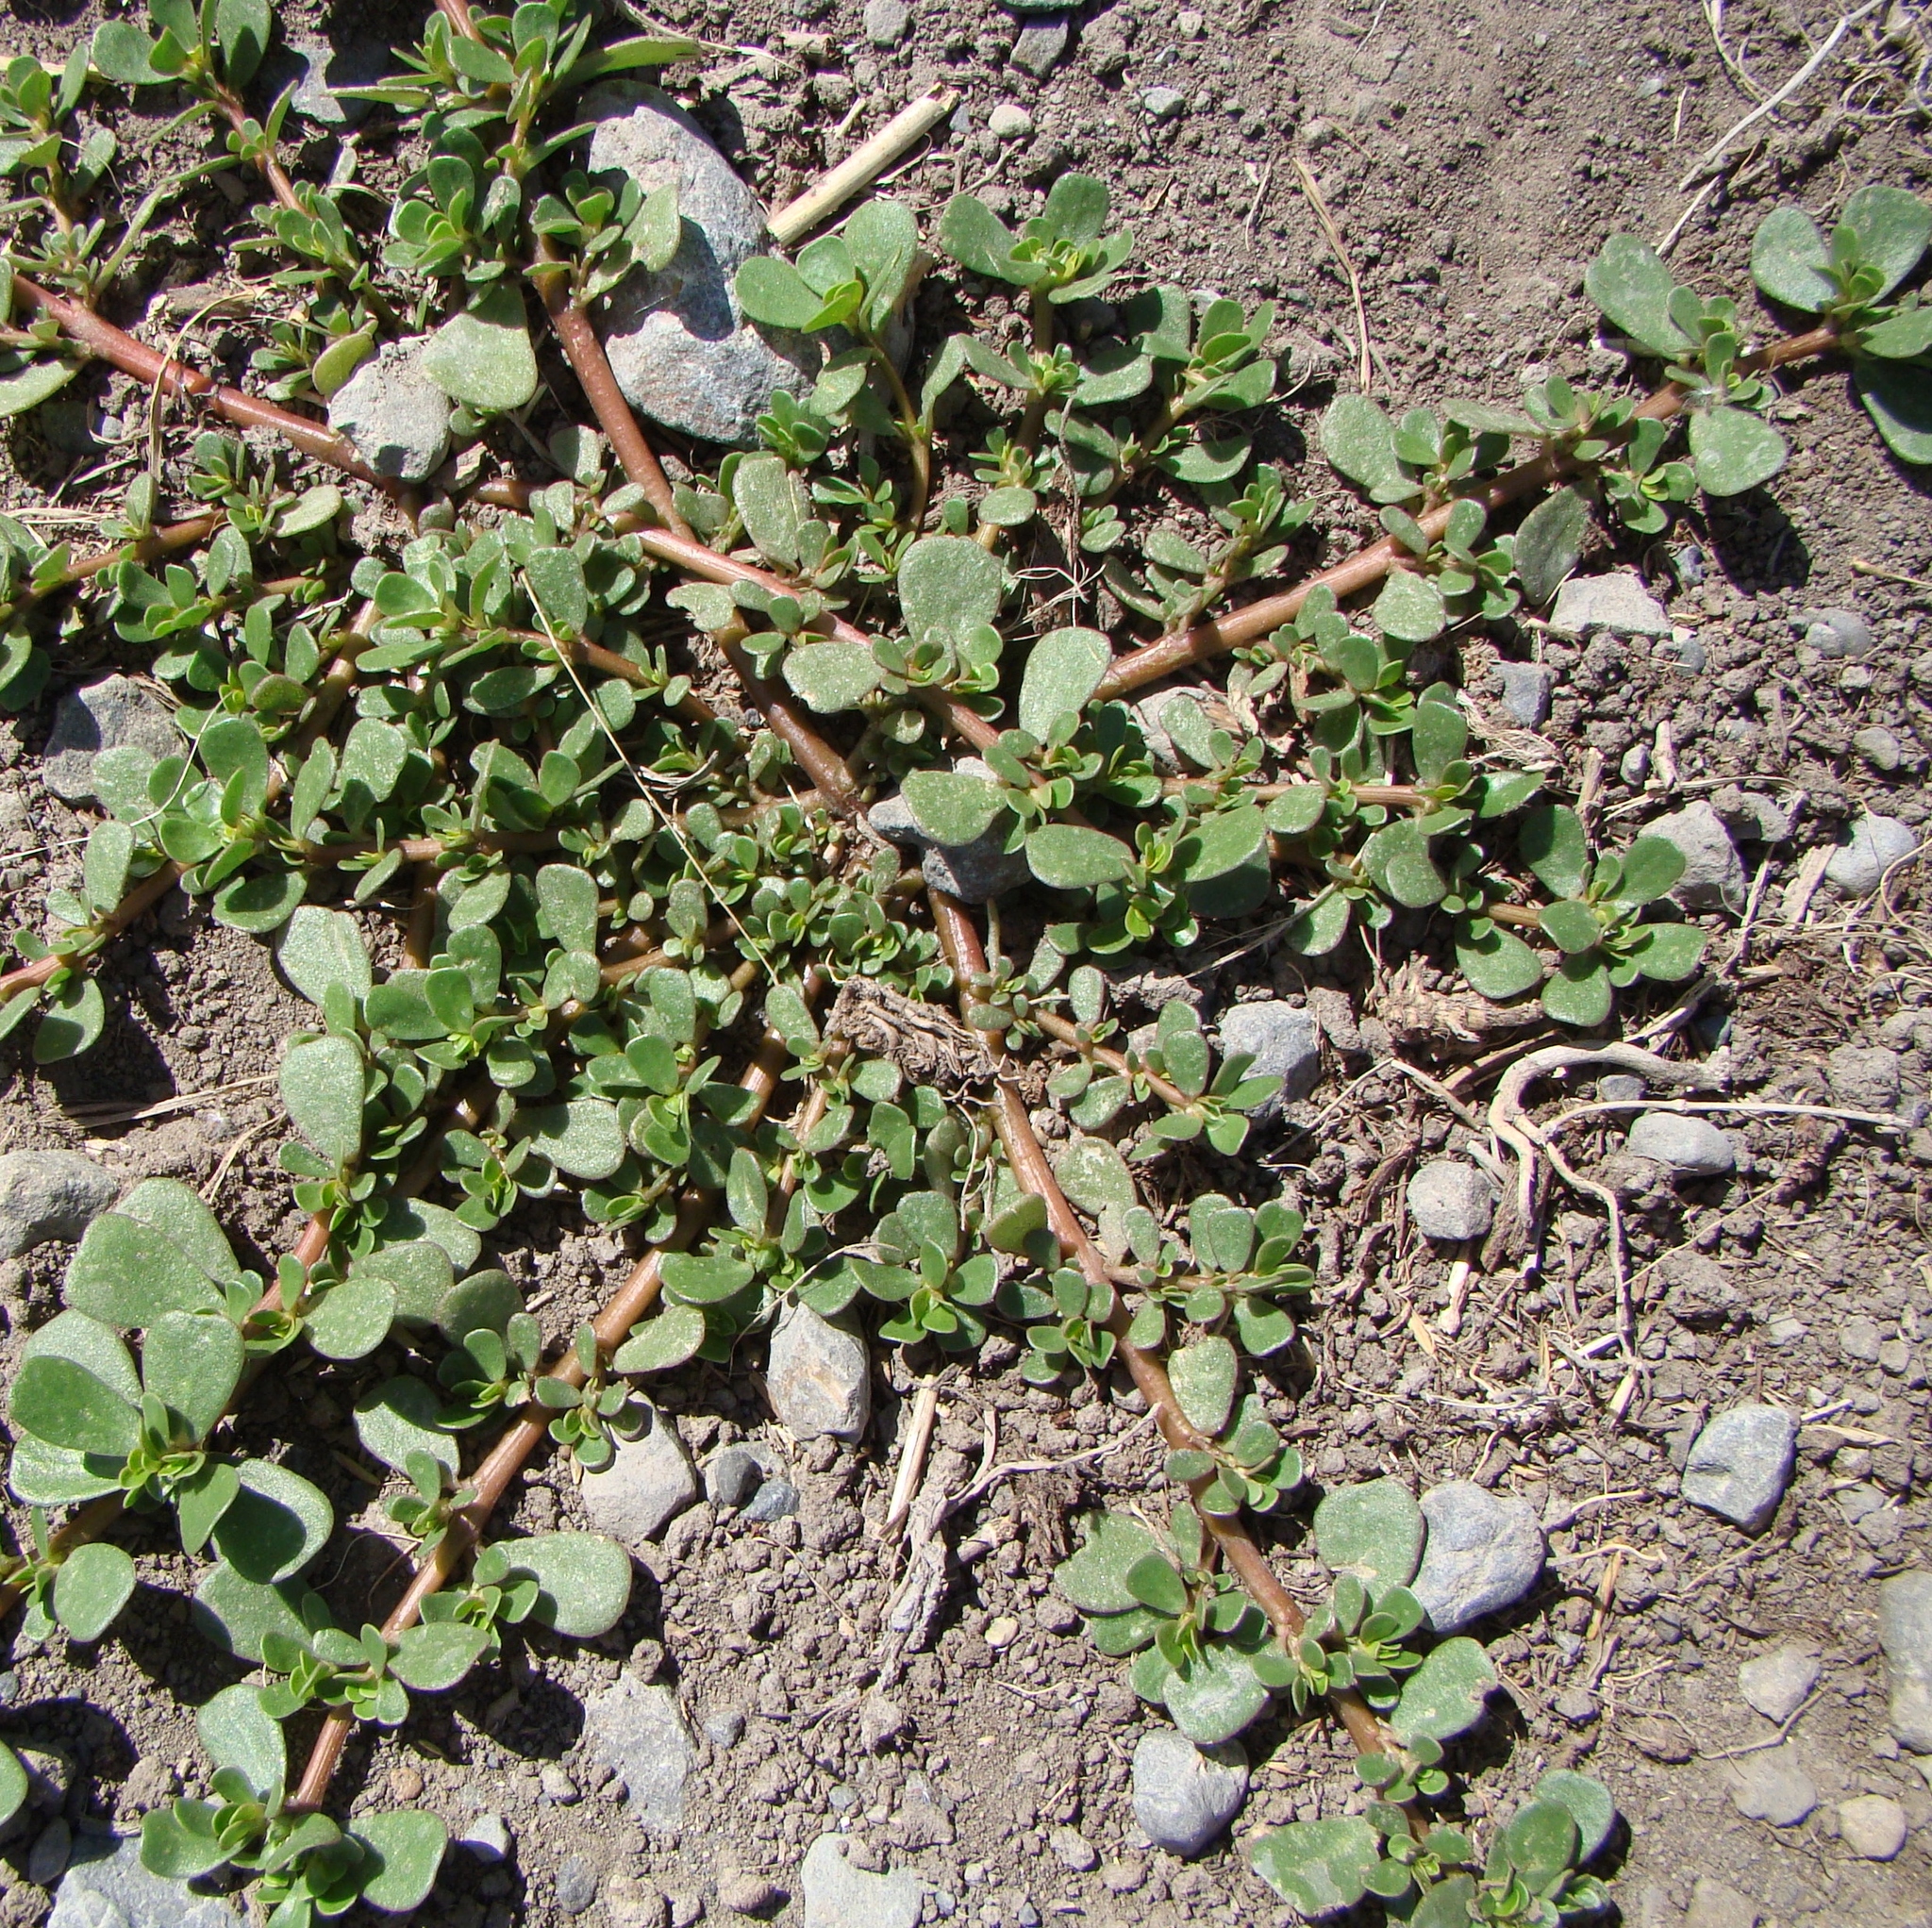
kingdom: Plantae
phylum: Tracheophyta
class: Magnoliopsida
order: Caryophyllales
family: Portulacaceae
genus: Portulaca
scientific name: Portulaca oleracea
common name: Common purslane
